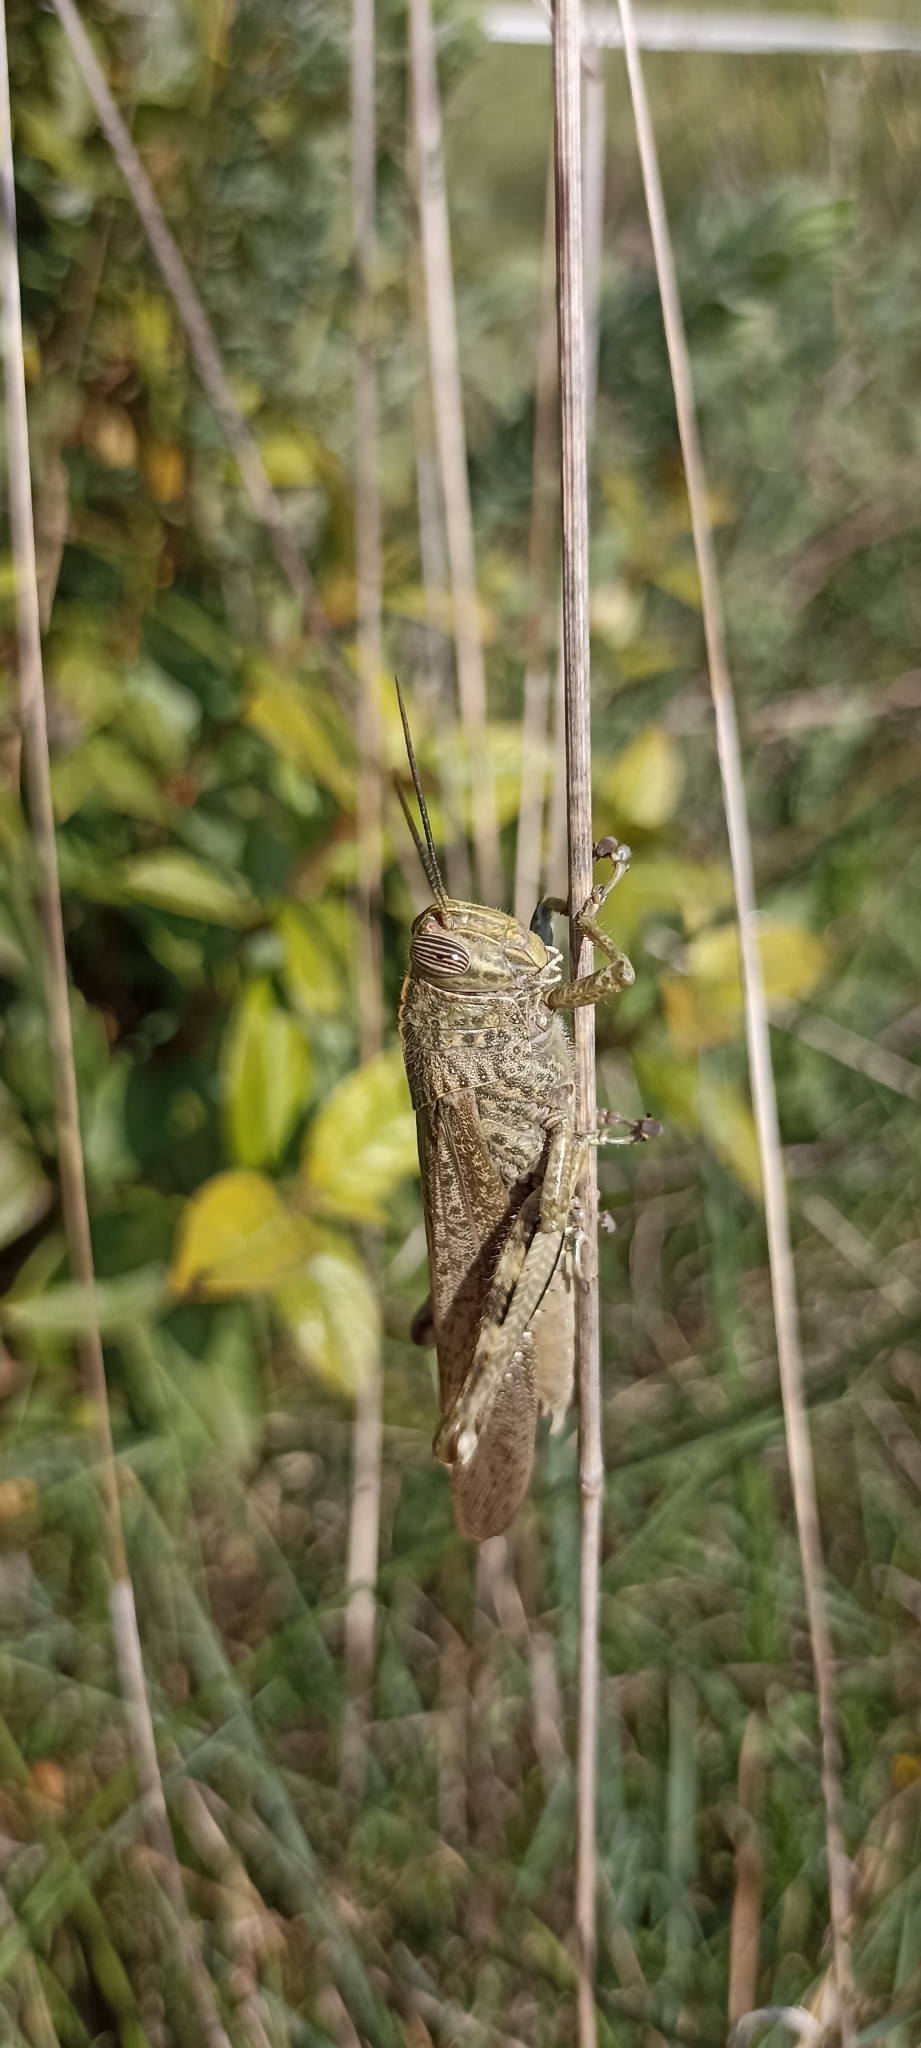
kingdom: Animalia
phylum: Arthropoda
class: Insecta
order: Orthoptera
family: Acrididae
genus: Anacridium
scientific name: Anacridium aegyptium
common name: Egyptian grasshopper
